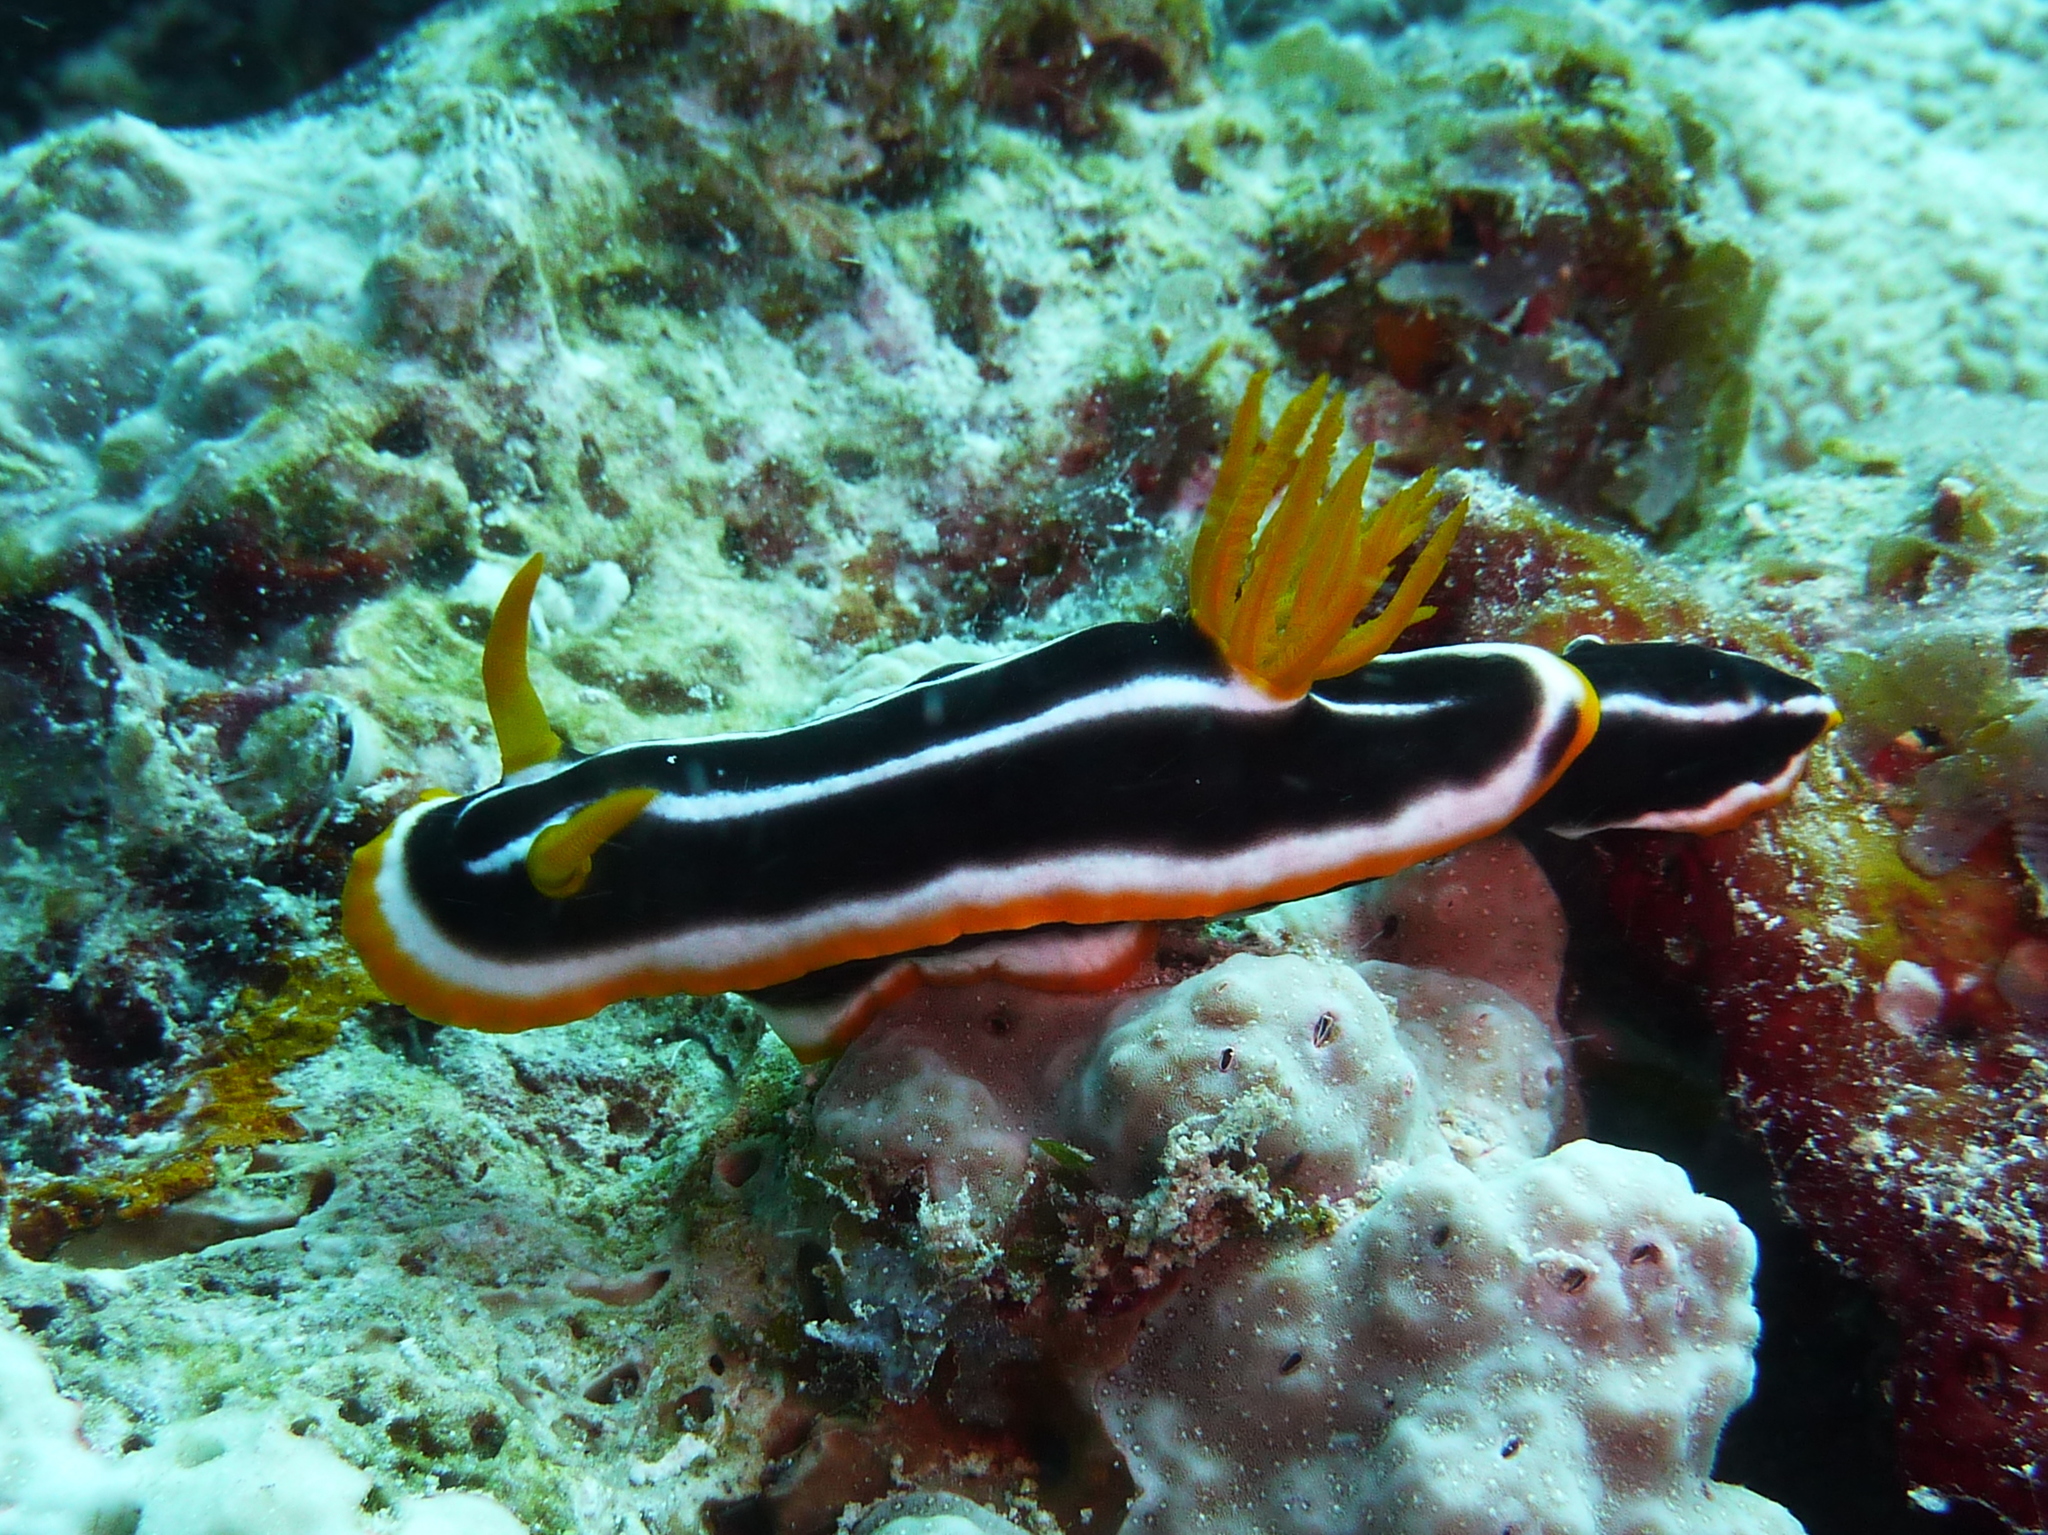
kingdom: Animalia
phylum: Mollusca
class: Gastropoda
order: Nudibranchia
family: Chromodorididae
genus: Chromodoris
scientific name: Chromodoris africana
